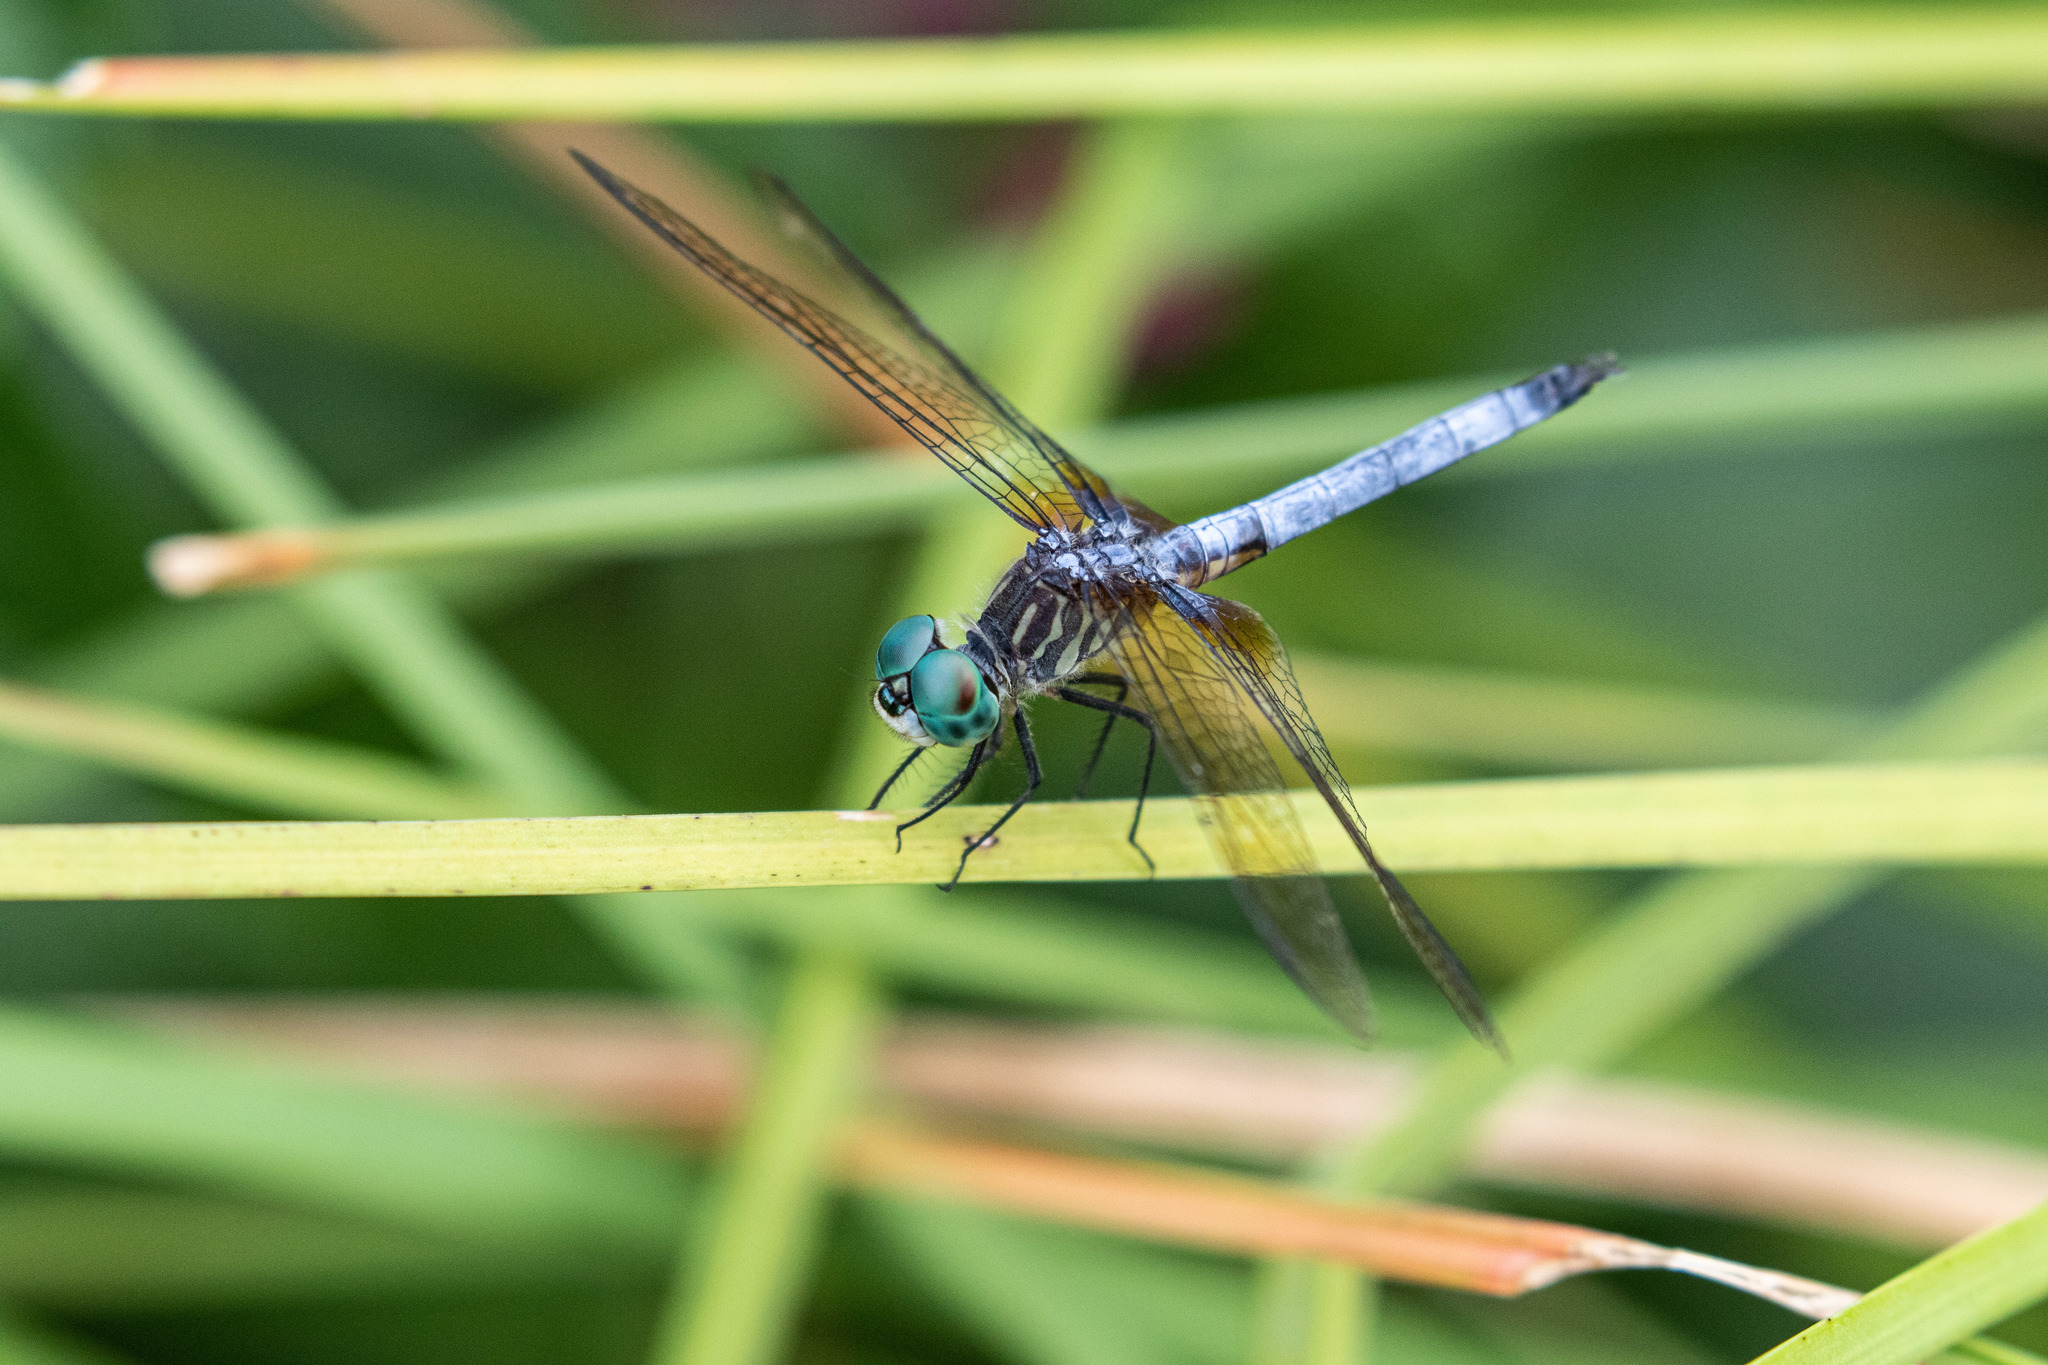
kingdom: Animalia
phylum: Arthropoda
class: Insecta
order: Odonata
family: Libellulidae
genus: Pachydiplax
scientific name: Pachydiplax longipennis
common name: Blue dasher
